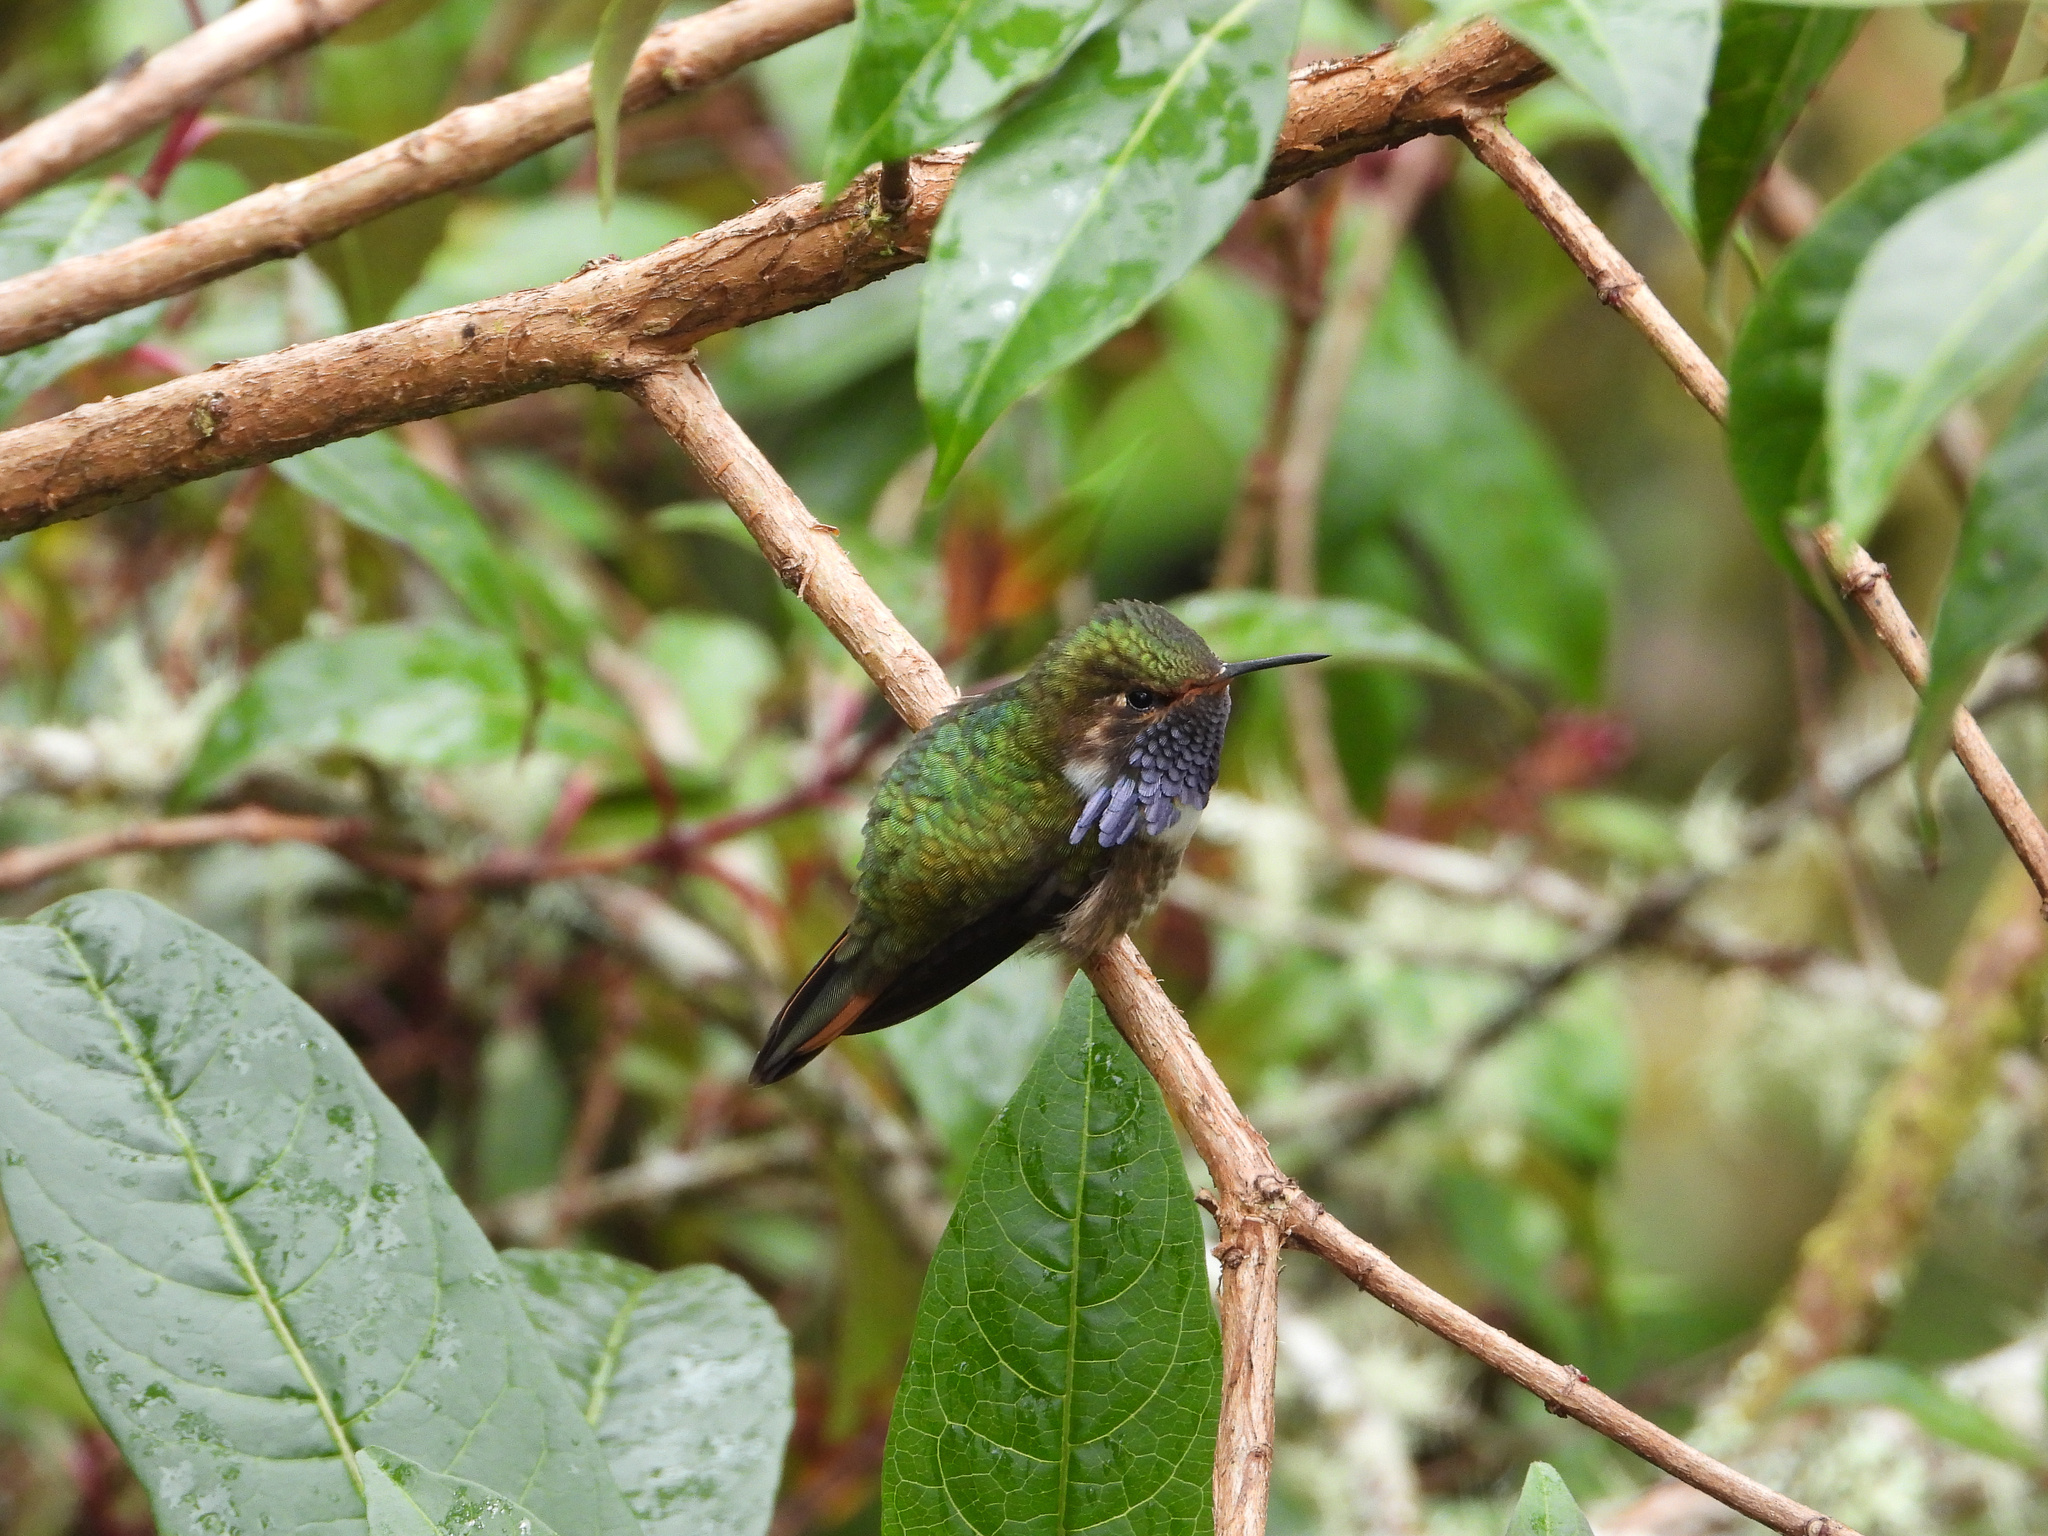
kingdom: Animalia
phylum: Chordata
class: Aves
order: Apodiformes
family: Trochilidae
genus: Selasphorus
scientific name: Selasphorus flammula
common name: Volcano hummingbird
